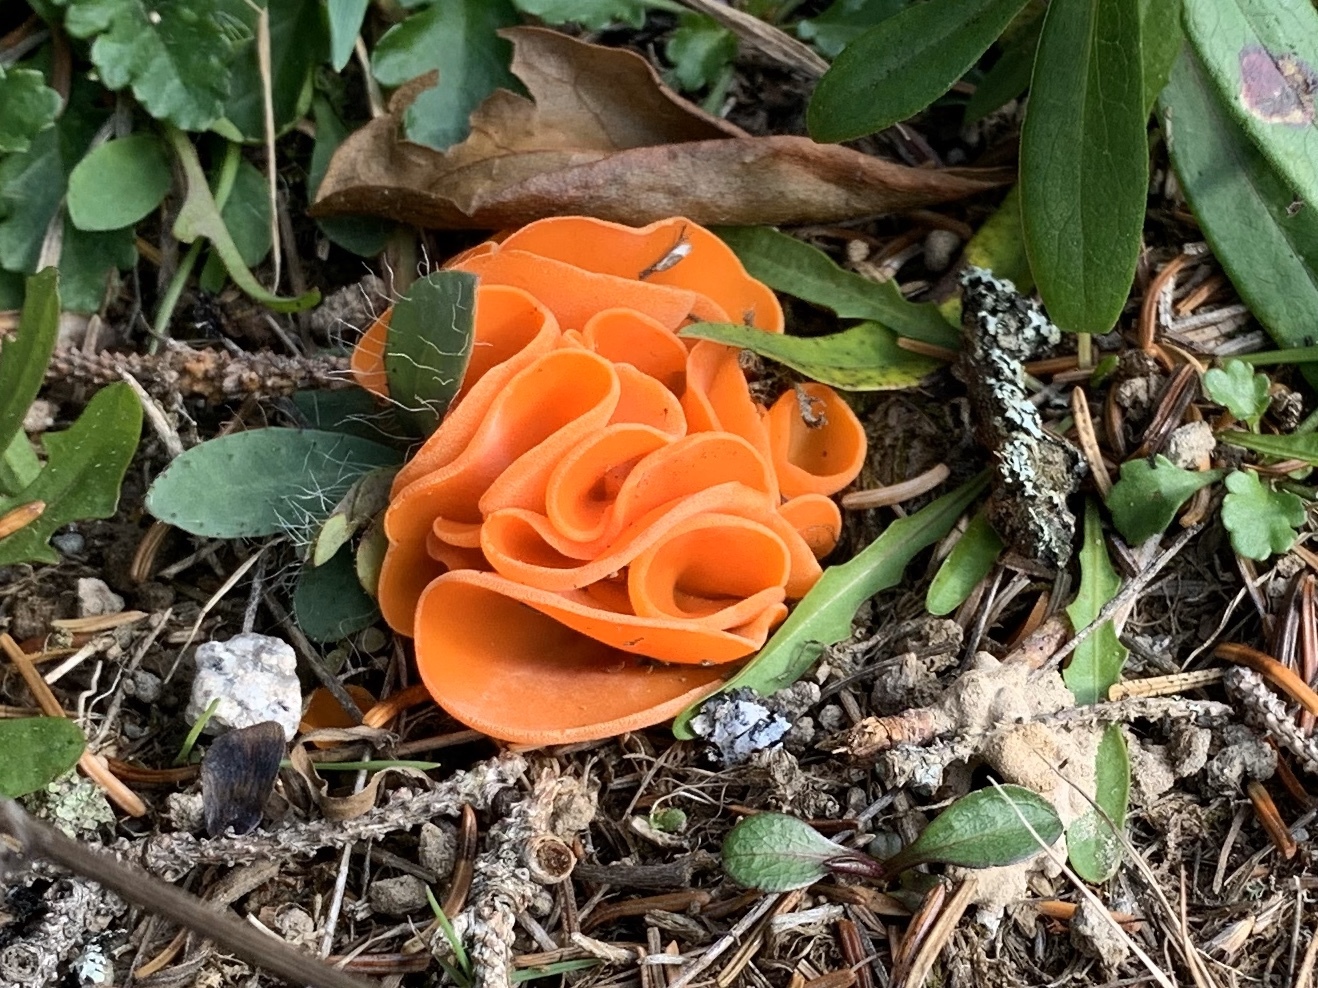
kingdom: Fungi
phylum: Ascomycota
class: Pezizomycetes
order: Pezizales
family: Pyronemataceae
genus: Aleuria
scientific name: Aleuria aurantia
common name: Orange peel fungus
